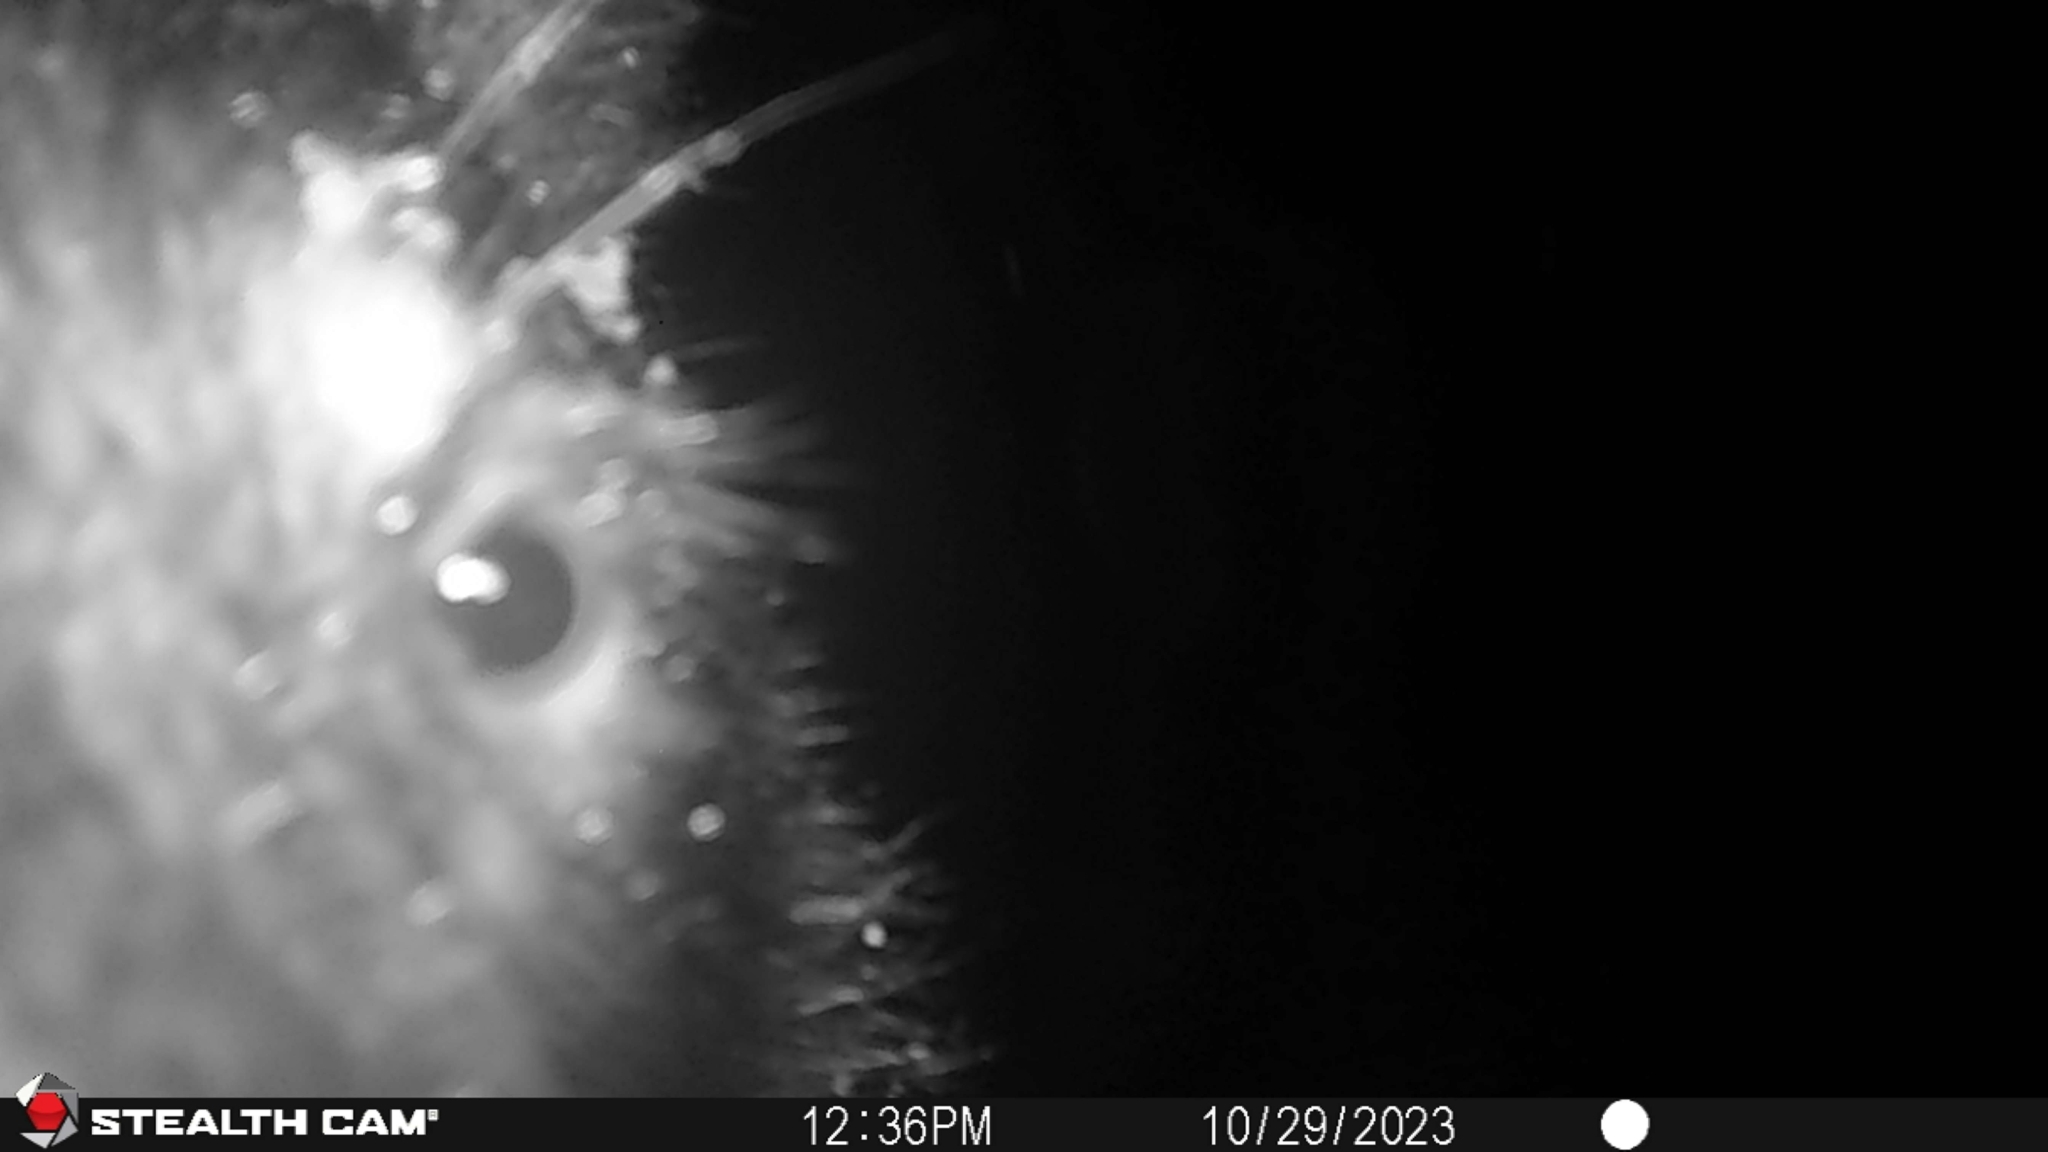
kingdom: Animalia
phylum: Chordata
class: Mammalia
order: Carnivora
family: Ursidae
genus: Ursus
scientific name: Ursus americanus
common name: American black bear
